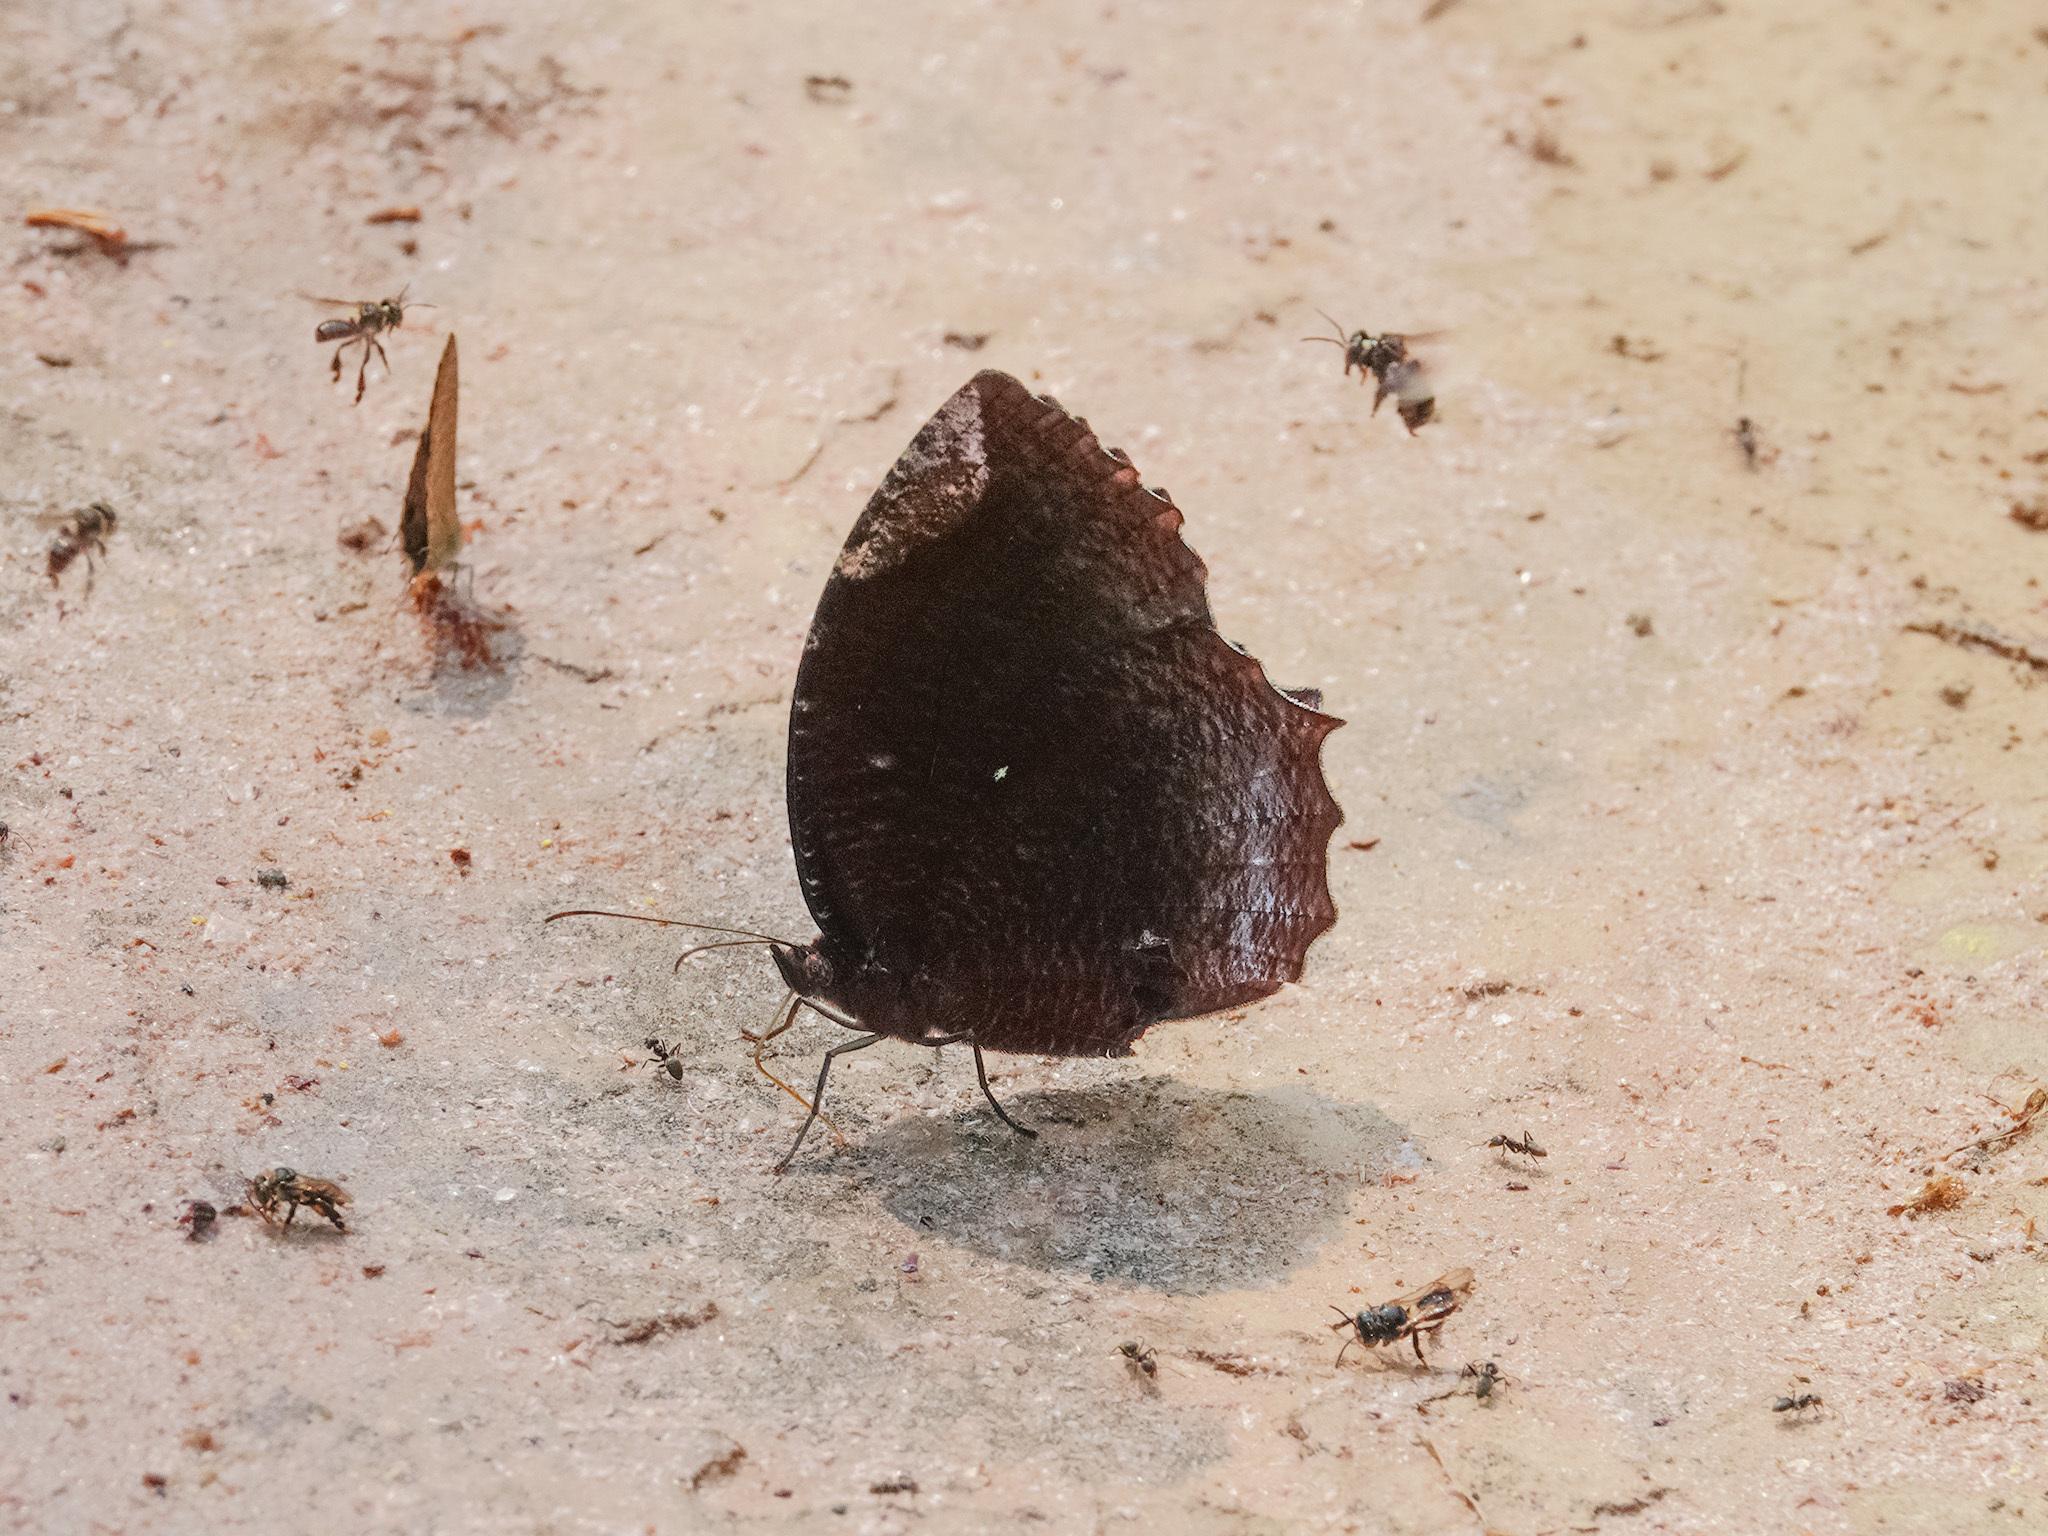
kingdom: Animalia
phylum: Arthropoda
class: Insecta
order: Lepidoptera
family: Nymphalidae
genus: Elymnias
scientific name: Elymnias hypermnestra
